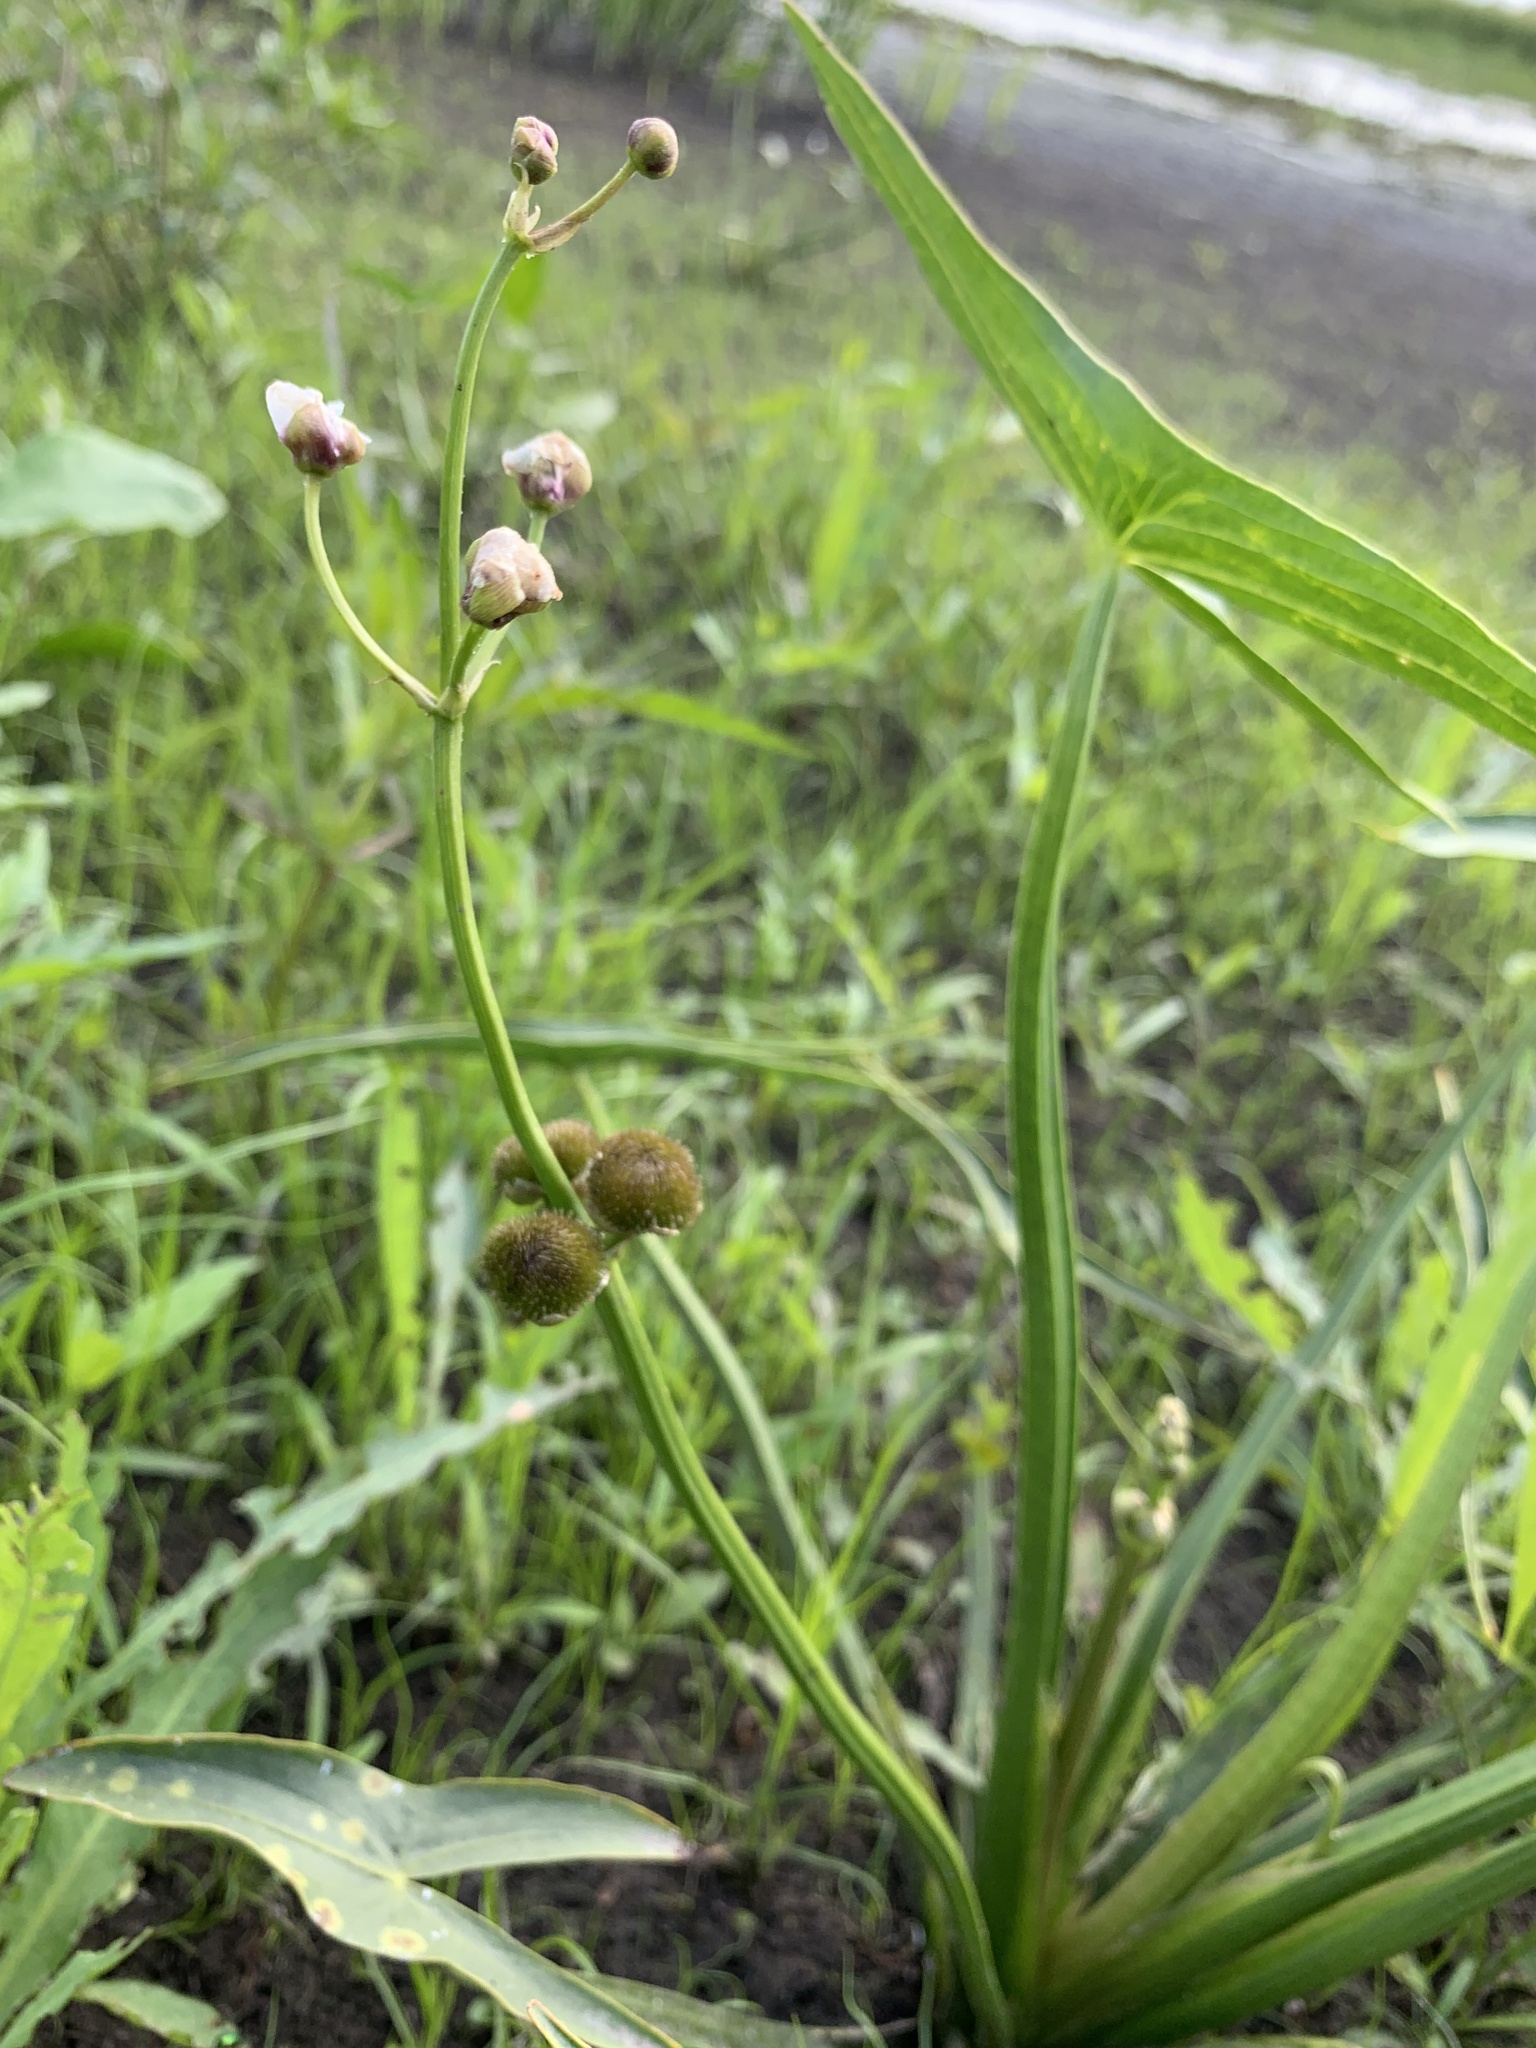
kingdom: Plantae
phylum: Tracheophyta
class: Liliopsida
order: Alismatales
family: Alismataceae
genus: Sagittaria
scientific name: Sagittaria sagittifolia
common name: Arrowhead
